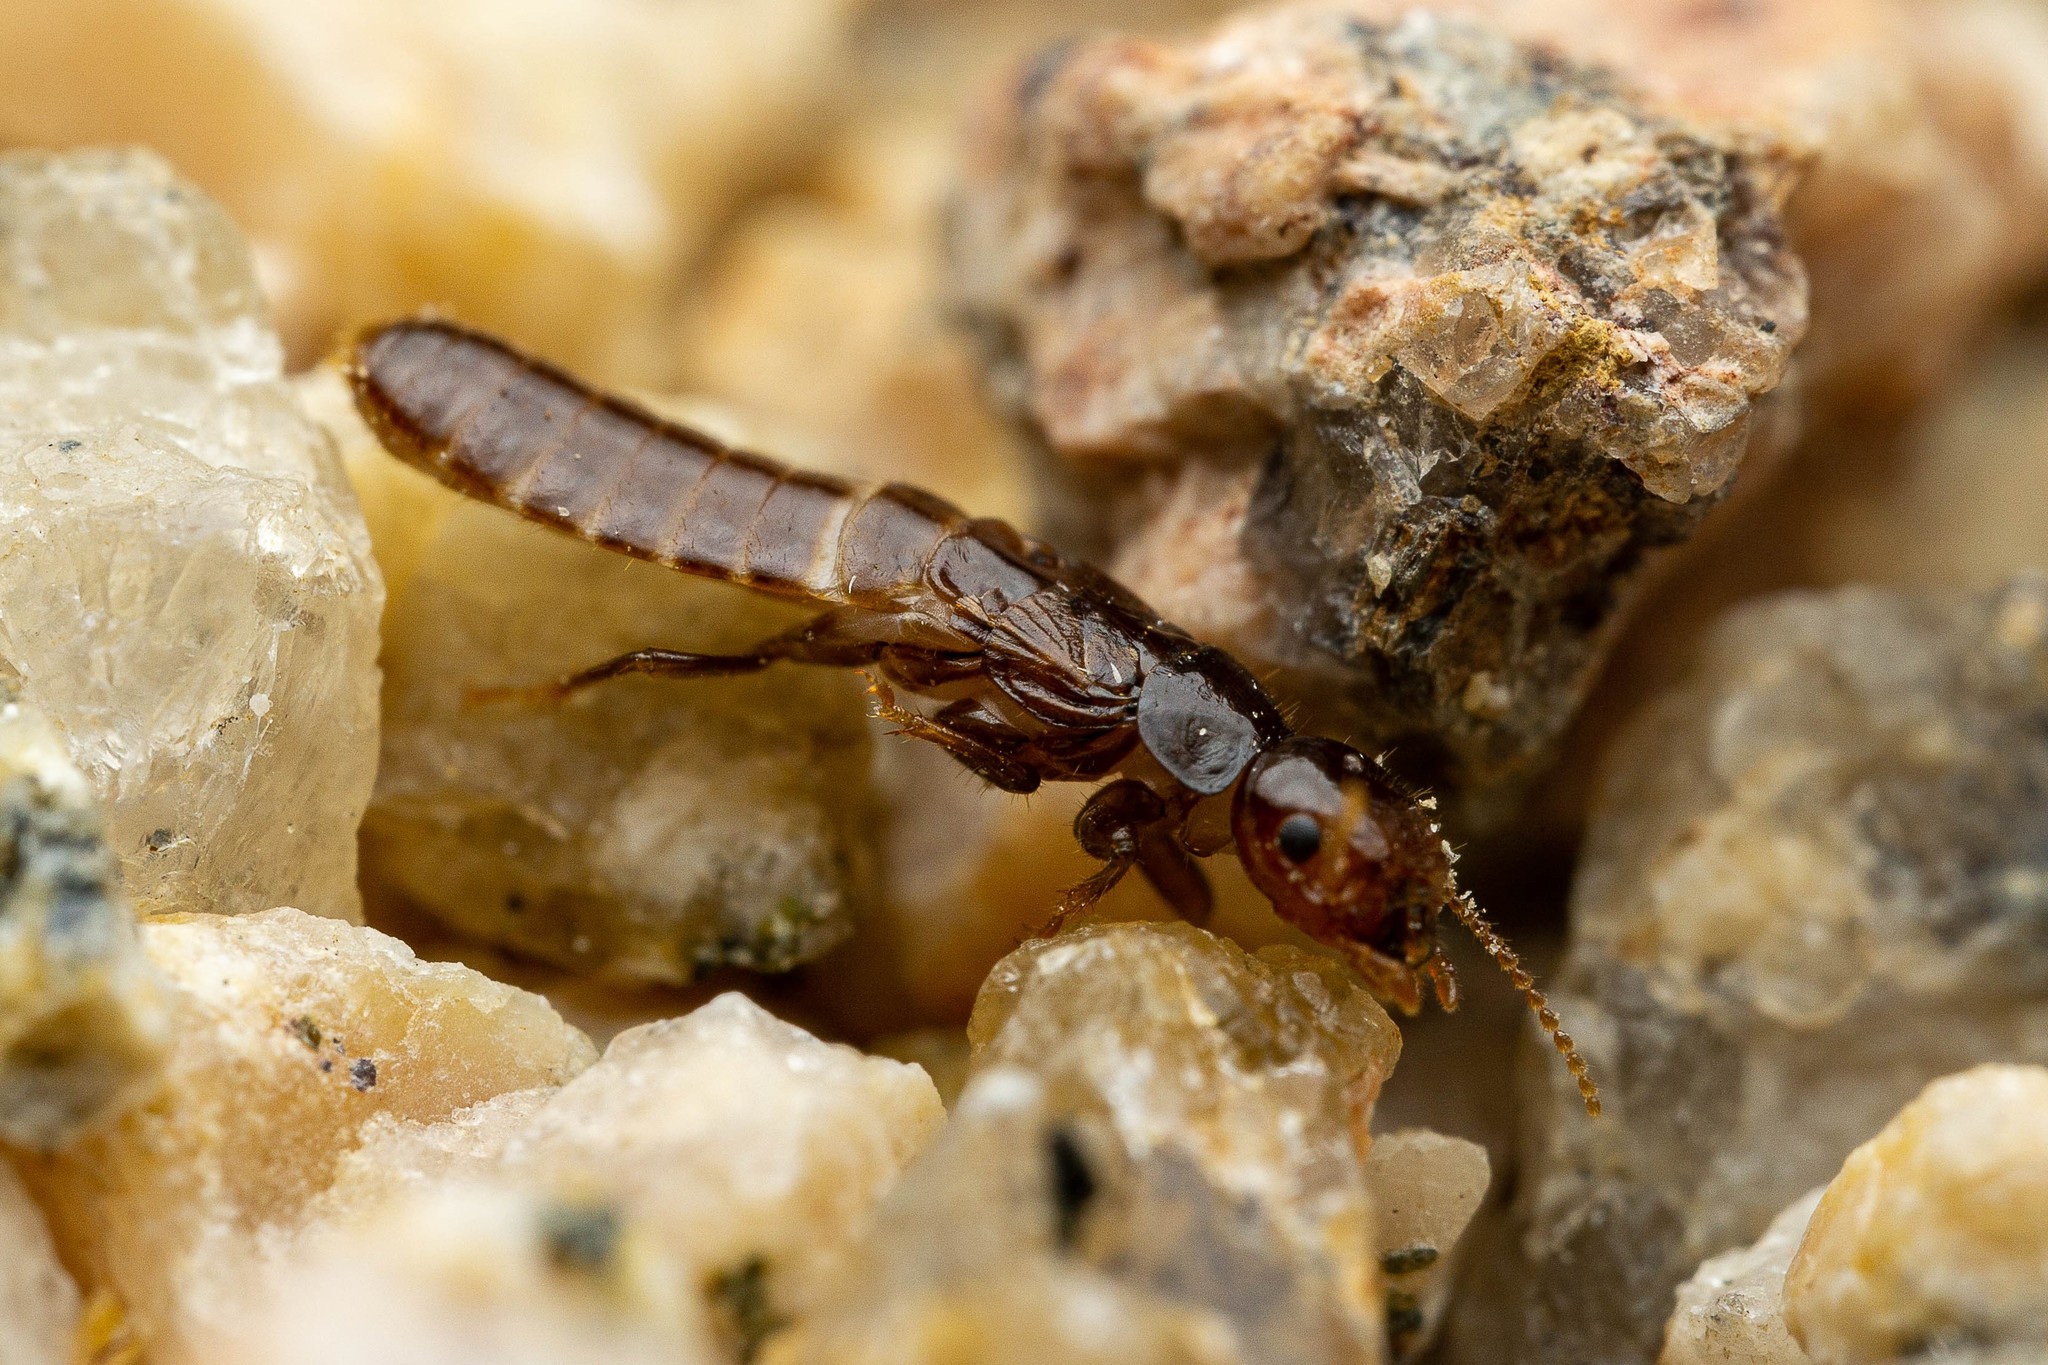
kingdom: Animalia
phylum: Arthropoda
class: Insecta
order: Blattodea
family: Kalotermitidae
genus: Paraneotermes
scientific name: Paraneotermes simplicicornis
